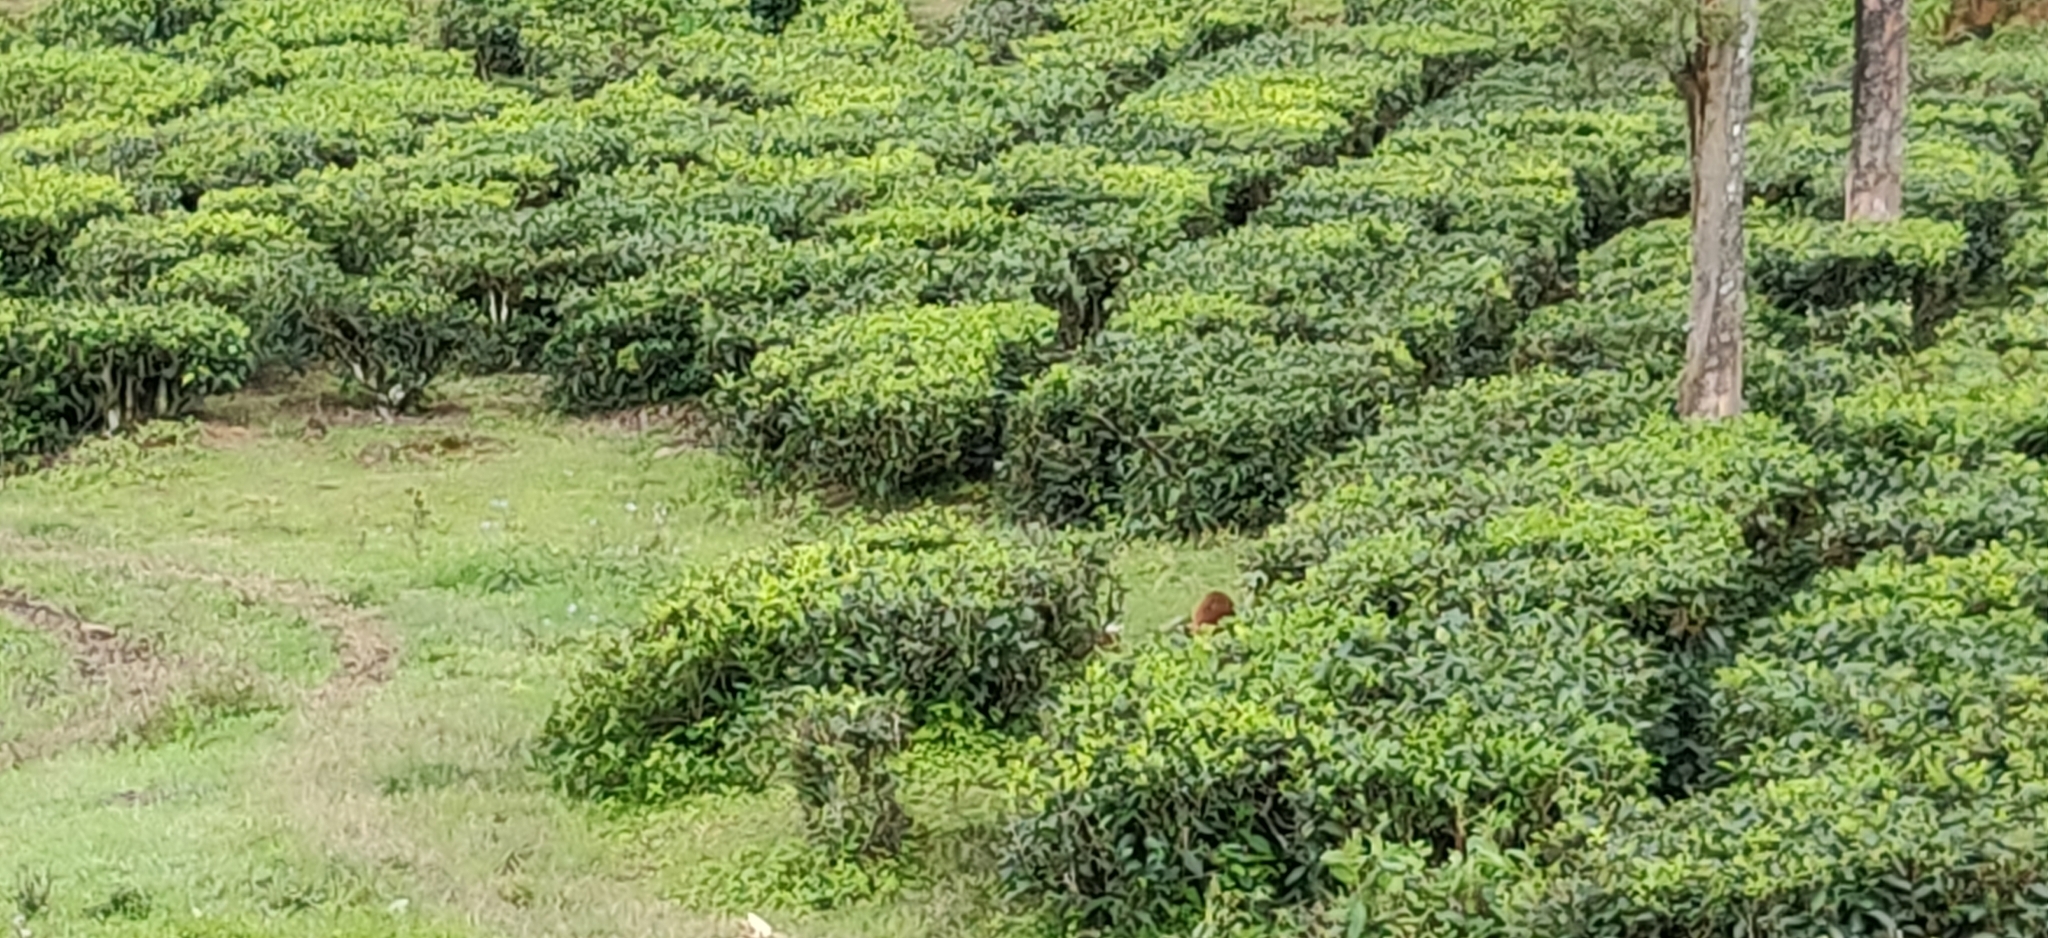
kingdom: Animalia
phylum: Chordata
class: Mammalia
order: Carnivora
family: Herpestidae
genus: Herpestes
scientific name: Herpestes vitticollis
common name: Stripe-necked mongoose
